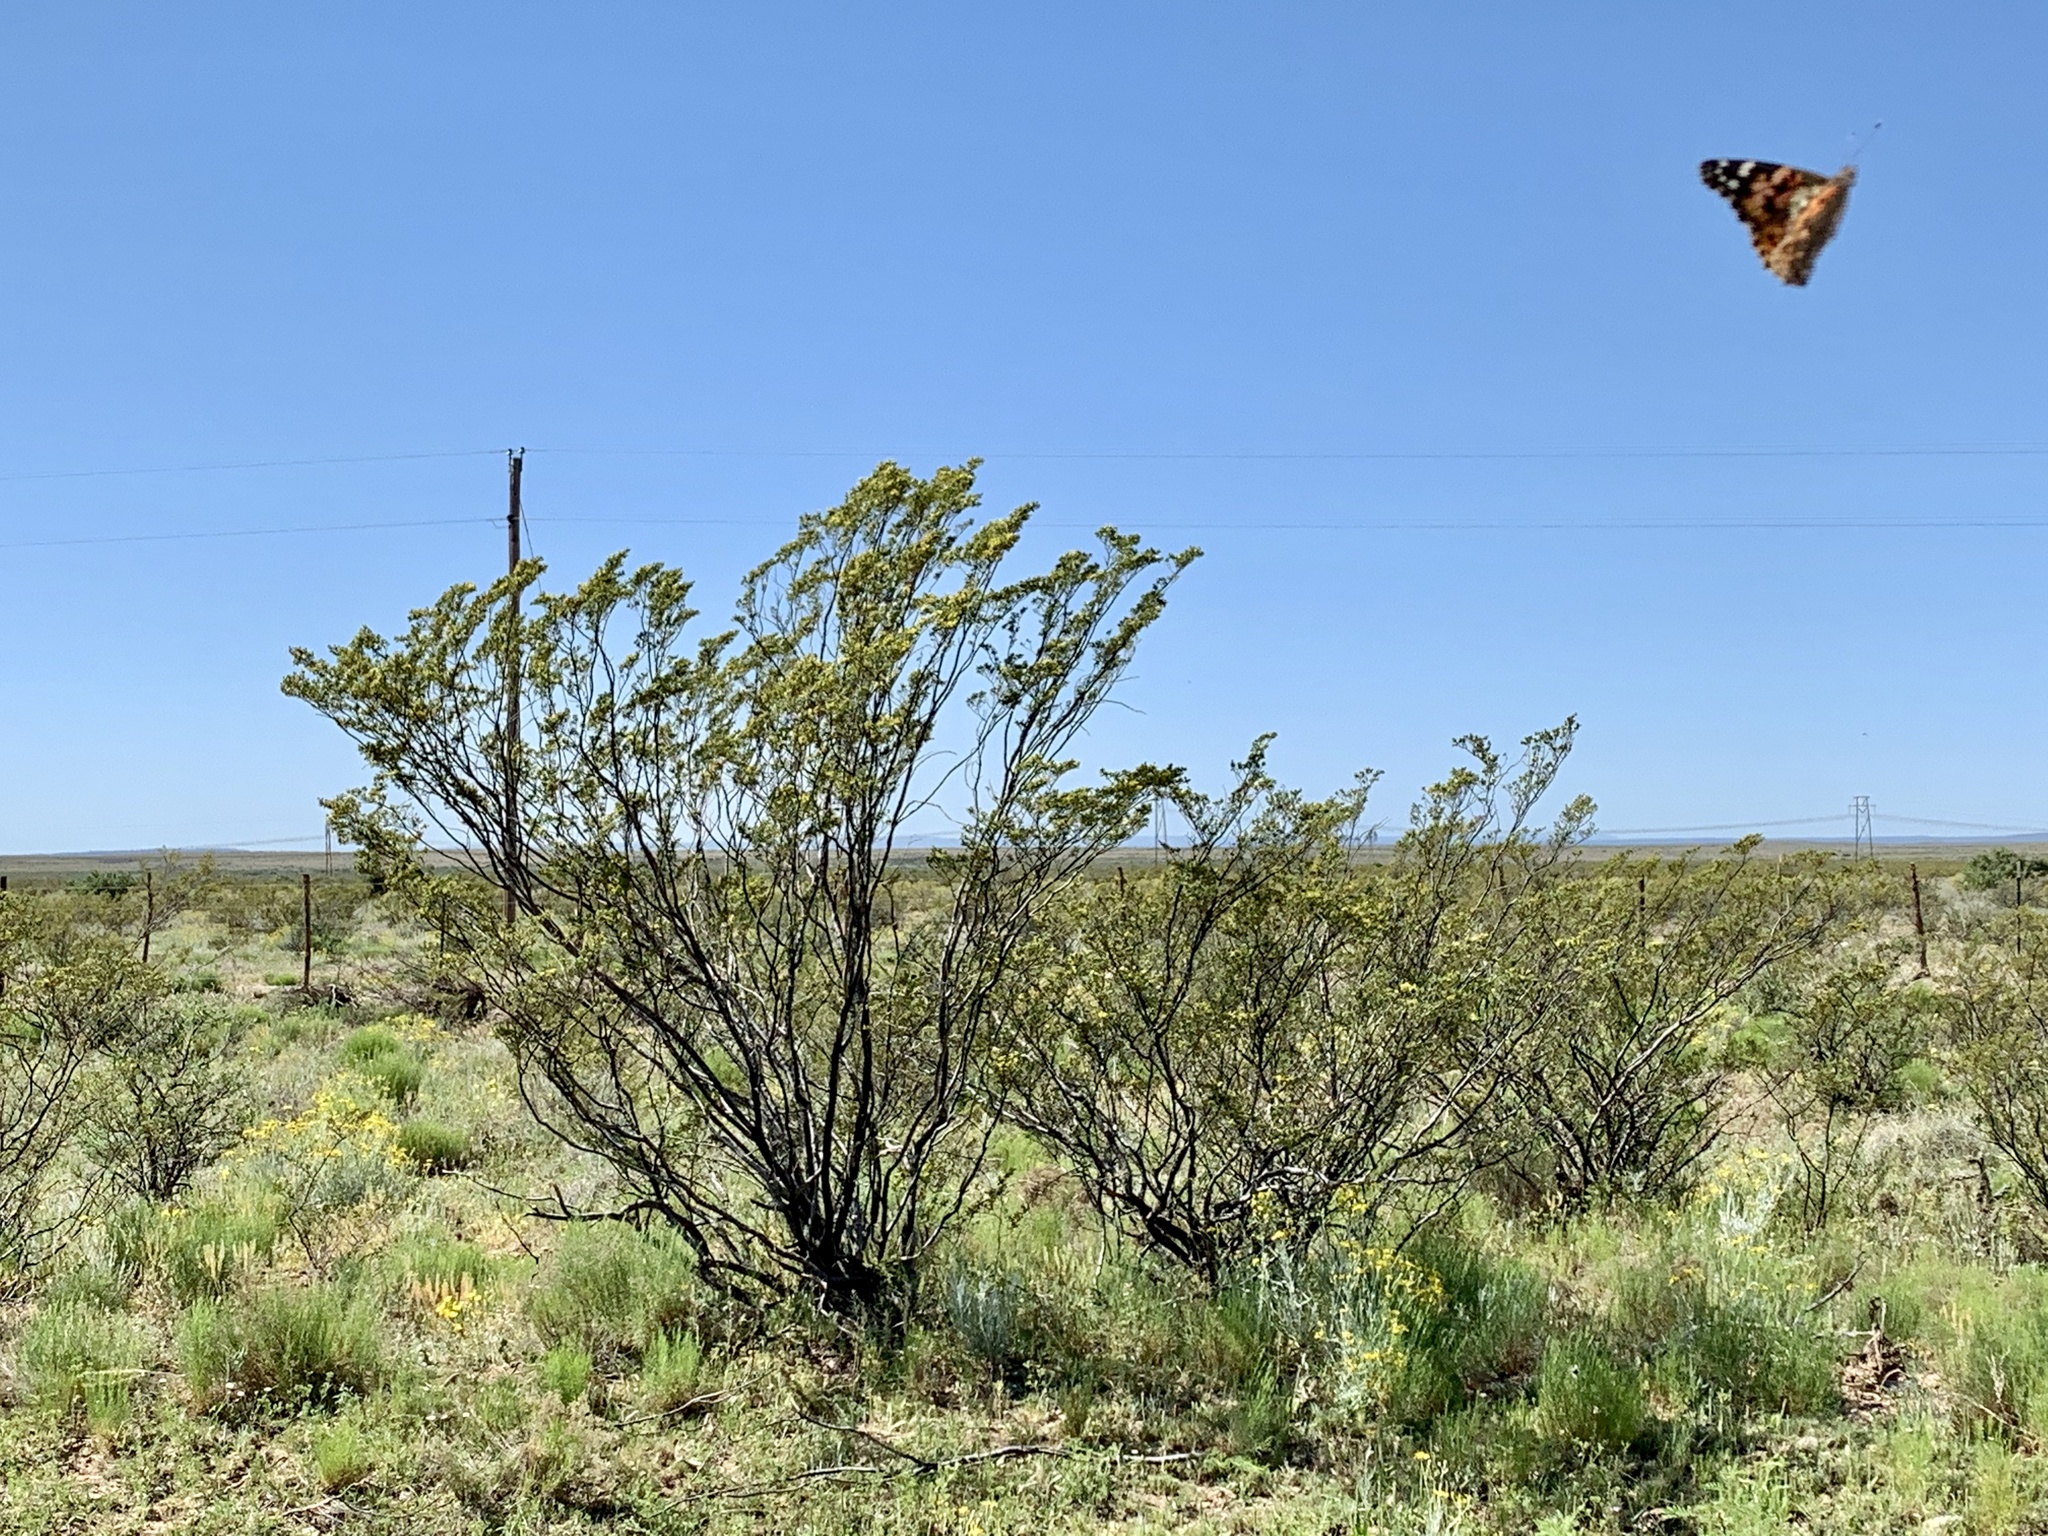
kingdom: Plantae
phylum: Tracheophyta
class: Magnoliopsida
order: Zygophyllales
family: Zygophyllaceae
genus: Larrea
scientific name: Larrea tridentata
